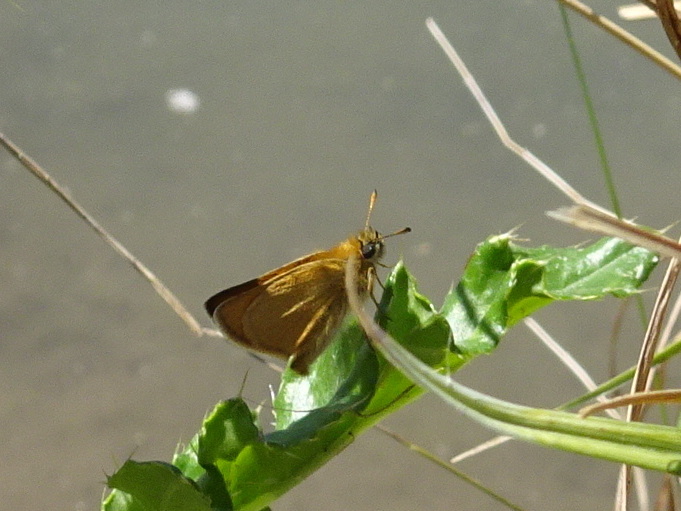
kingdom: Animalia
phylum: Arthropoda
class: Insecta
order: Lepidoptera
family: Hesperiidae
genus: Thymelicus
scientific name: Thymelicus lineola
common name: Essex skipper
